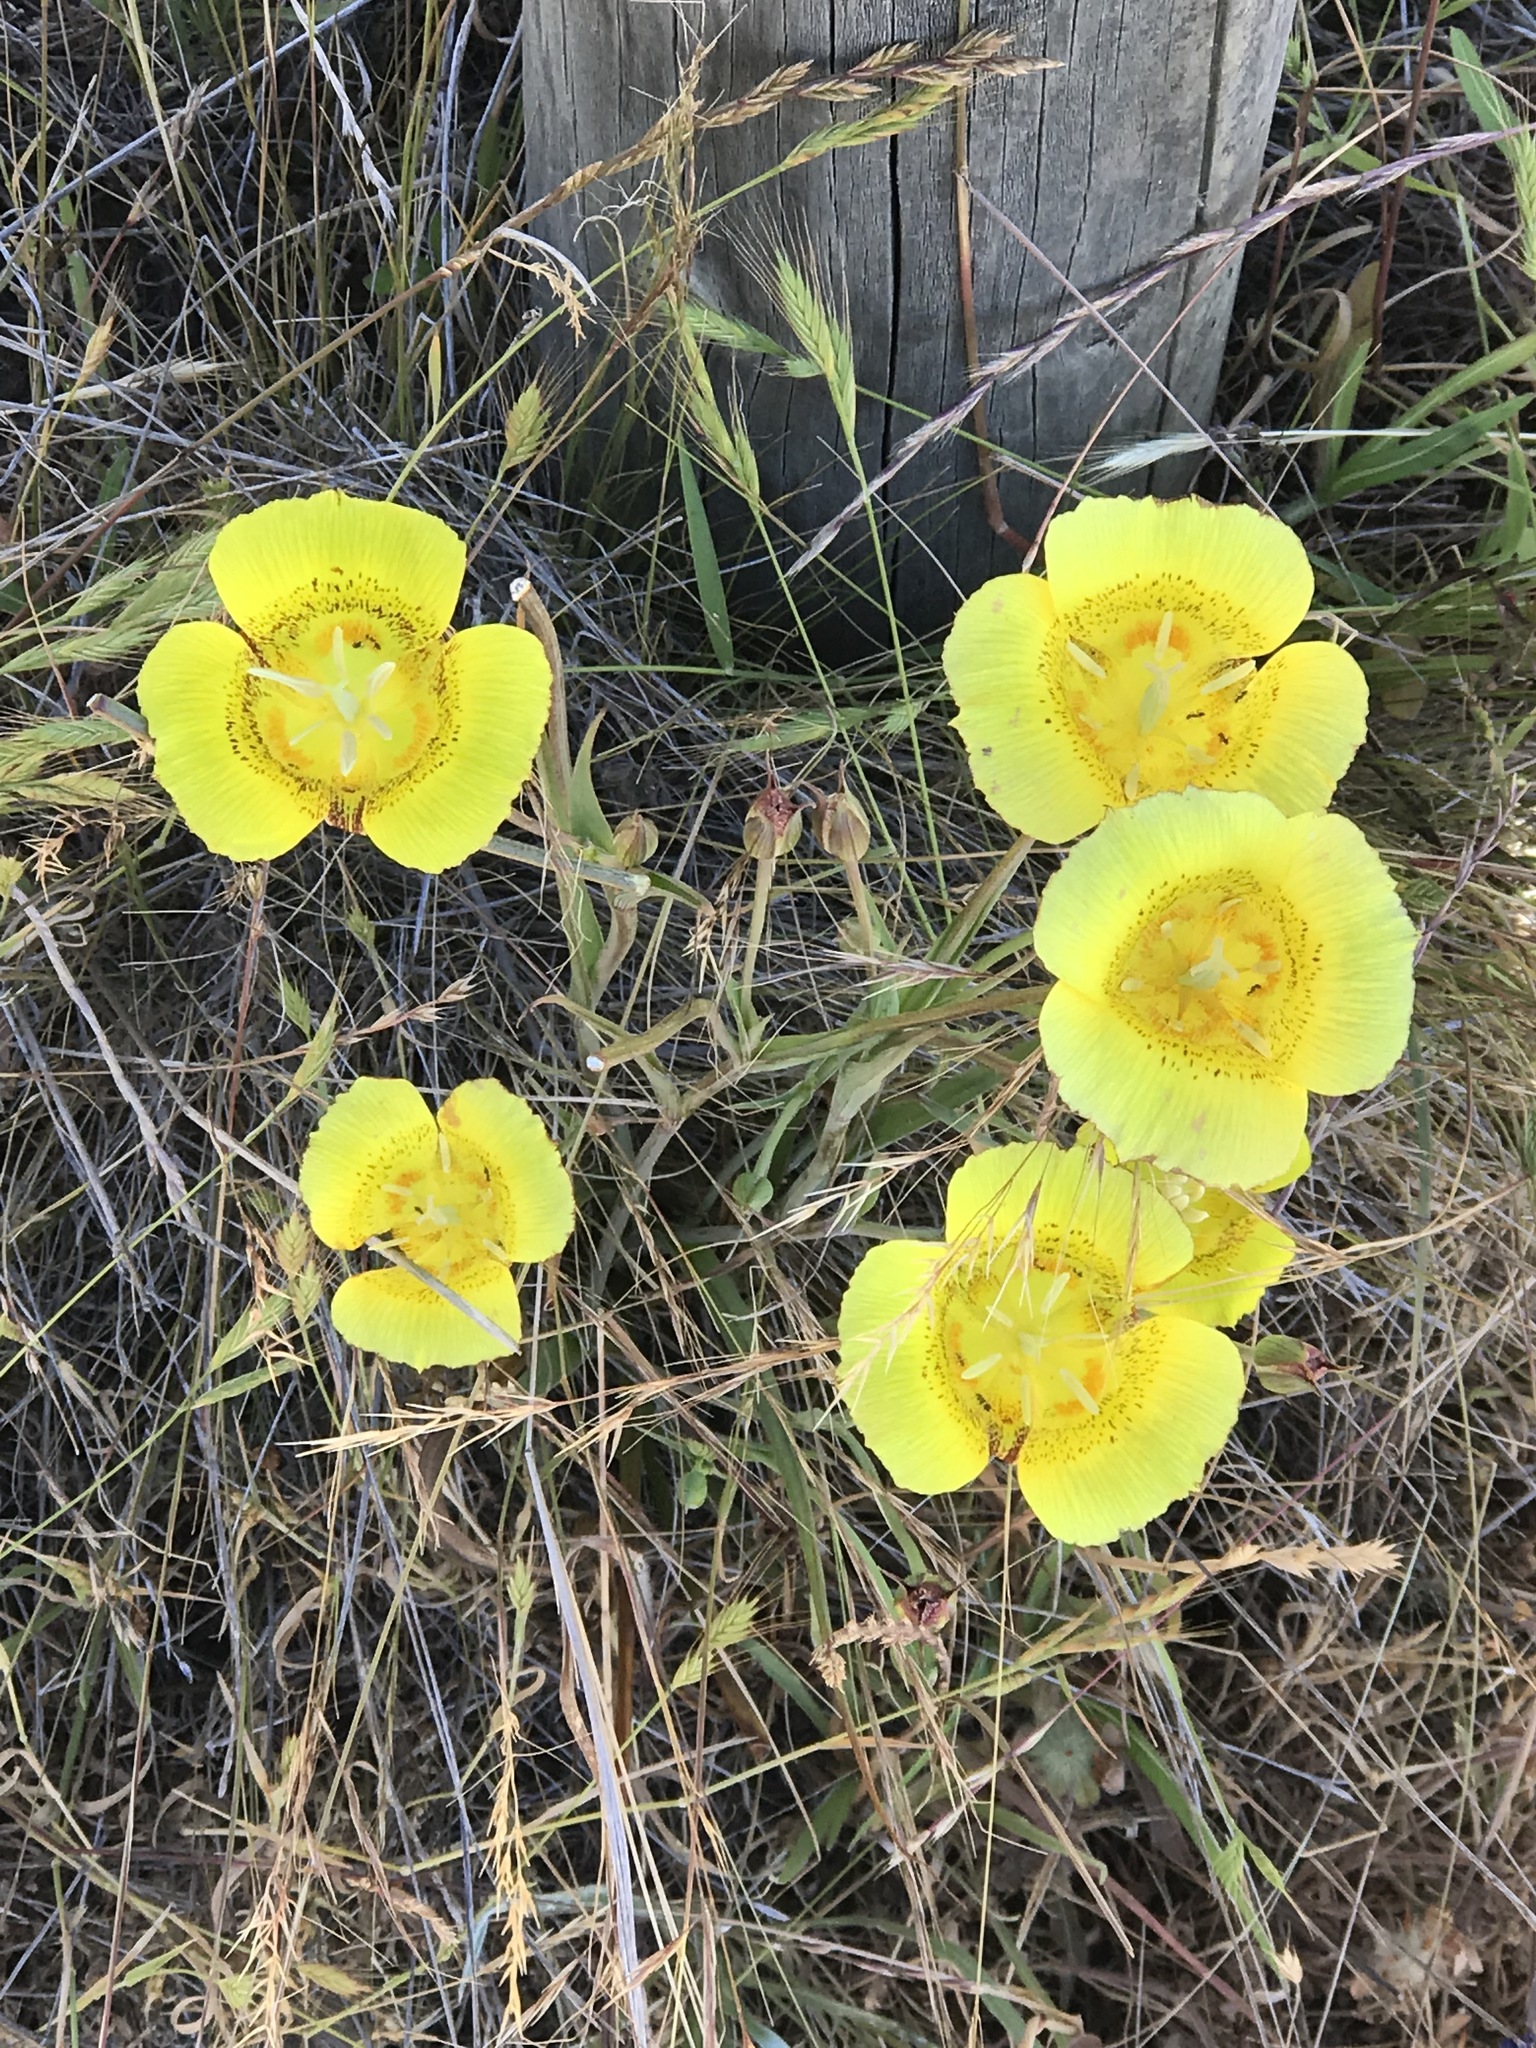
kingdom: Plantae
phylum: Tracheophyta
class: Liliopsida
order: Liliales
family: Liliaceae
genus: Calochortus
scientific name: Calochortus luteus
